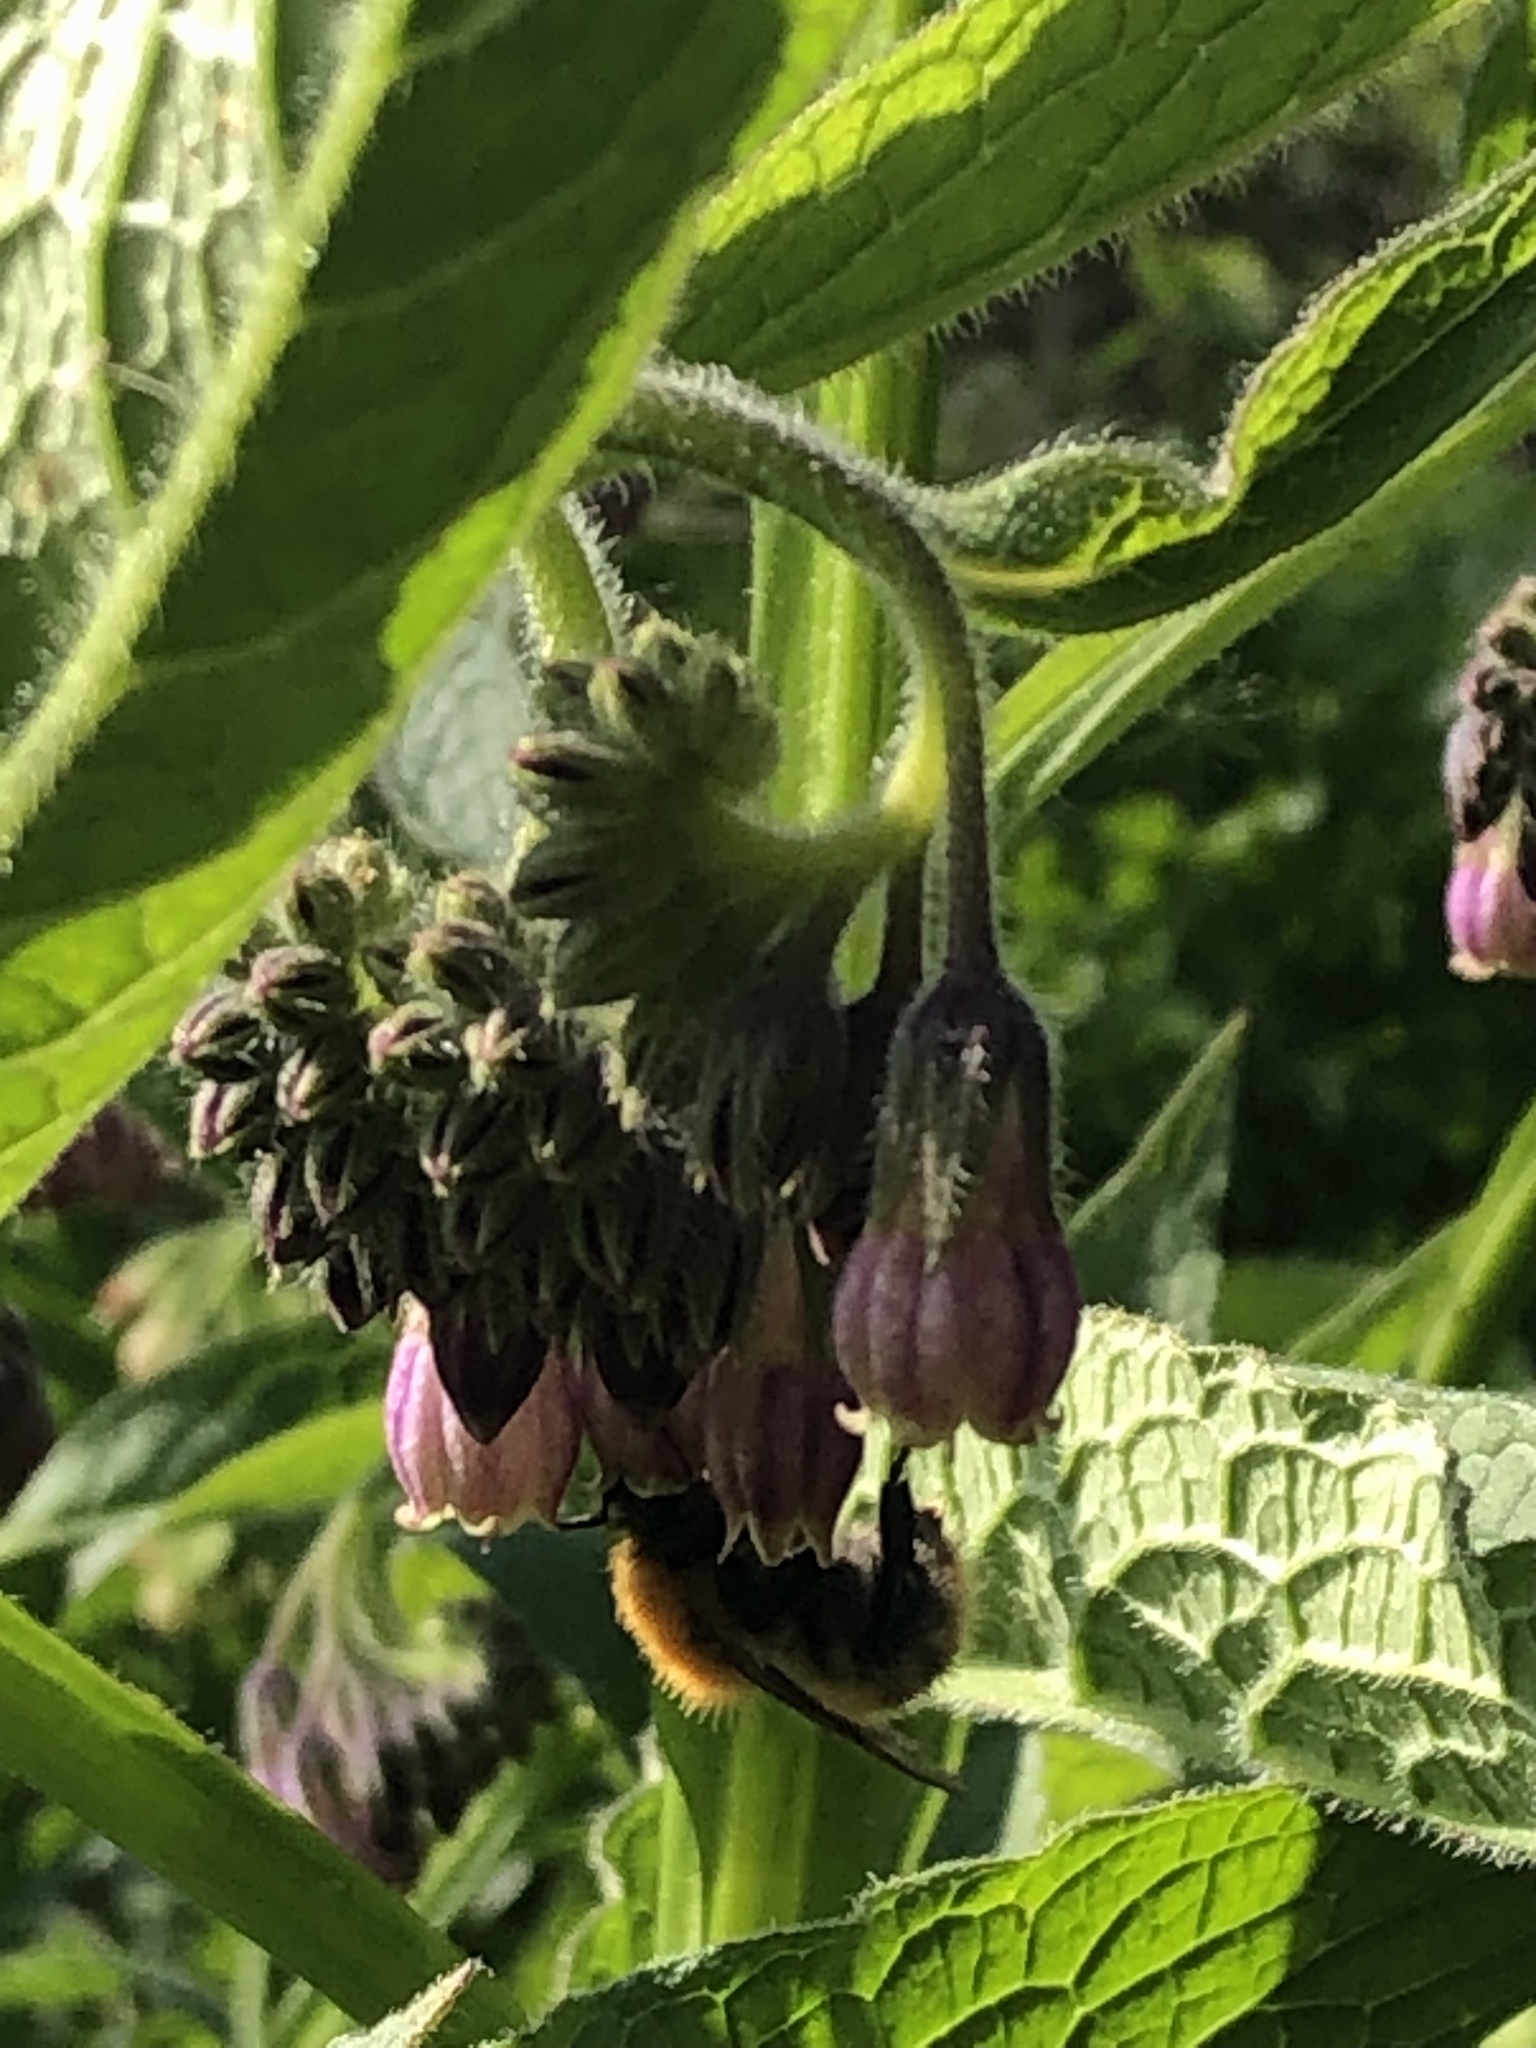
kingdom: Animalia
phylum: Arthropoda
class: Insecta
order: Hymenoptera
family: Apidae
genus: Bombus
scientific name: Bombus pascuorum
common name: Common carder bee
